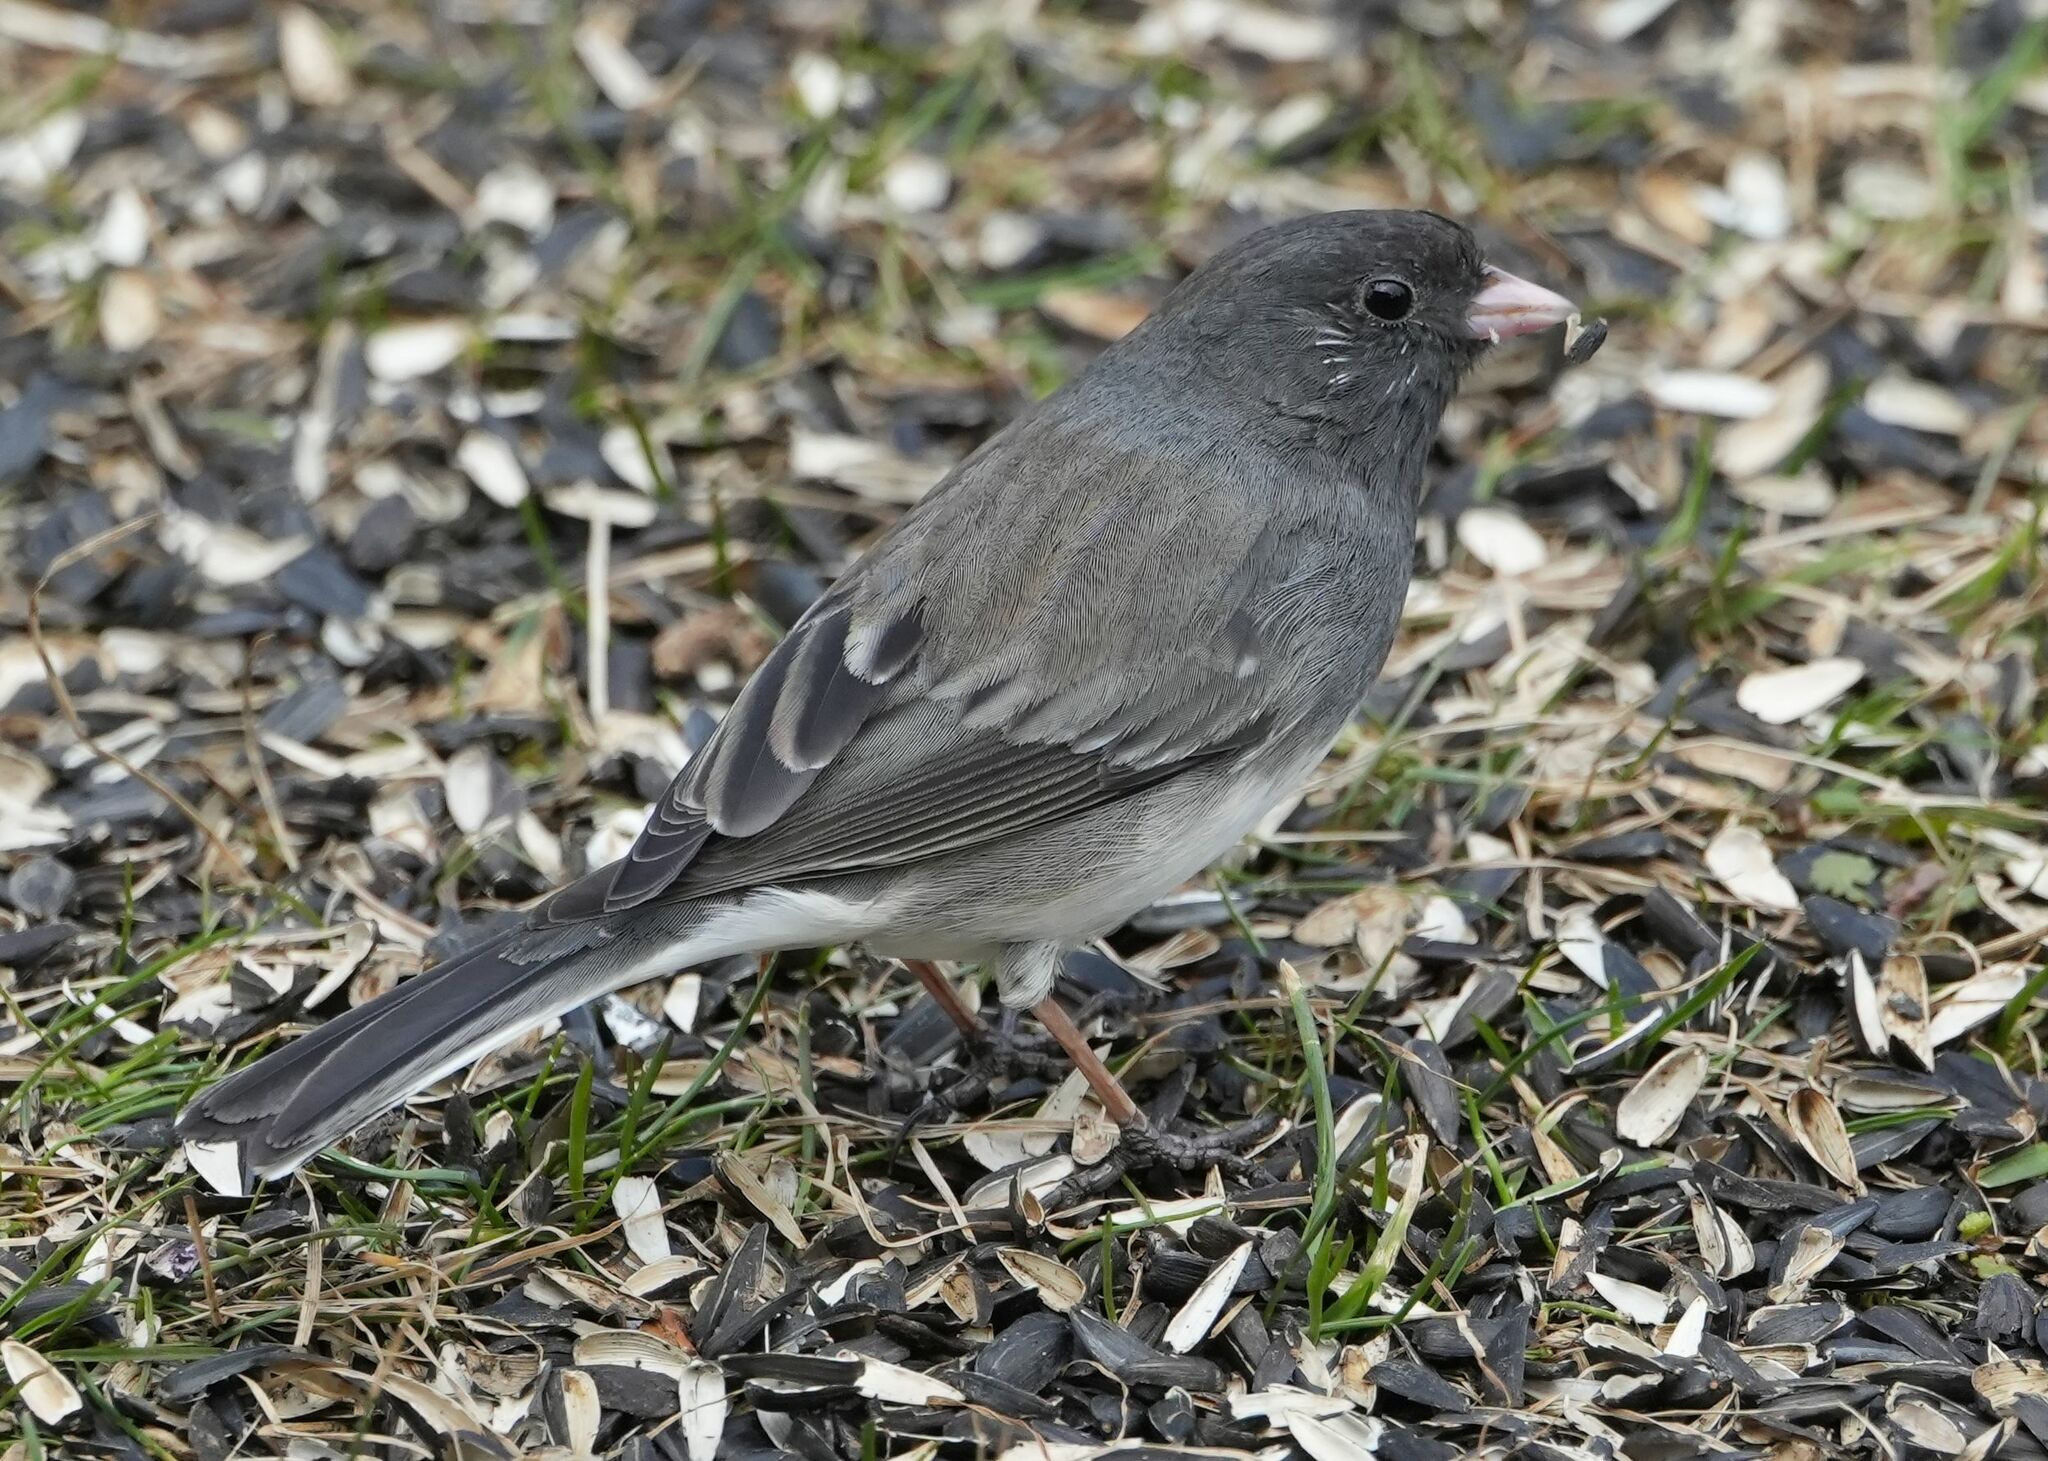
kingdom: Animalia
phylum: Chordata
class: Aves
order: Passeriformes
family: Passerellidae
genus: Junco
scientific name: Junco hyemalis
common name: Dark-eyed junco
